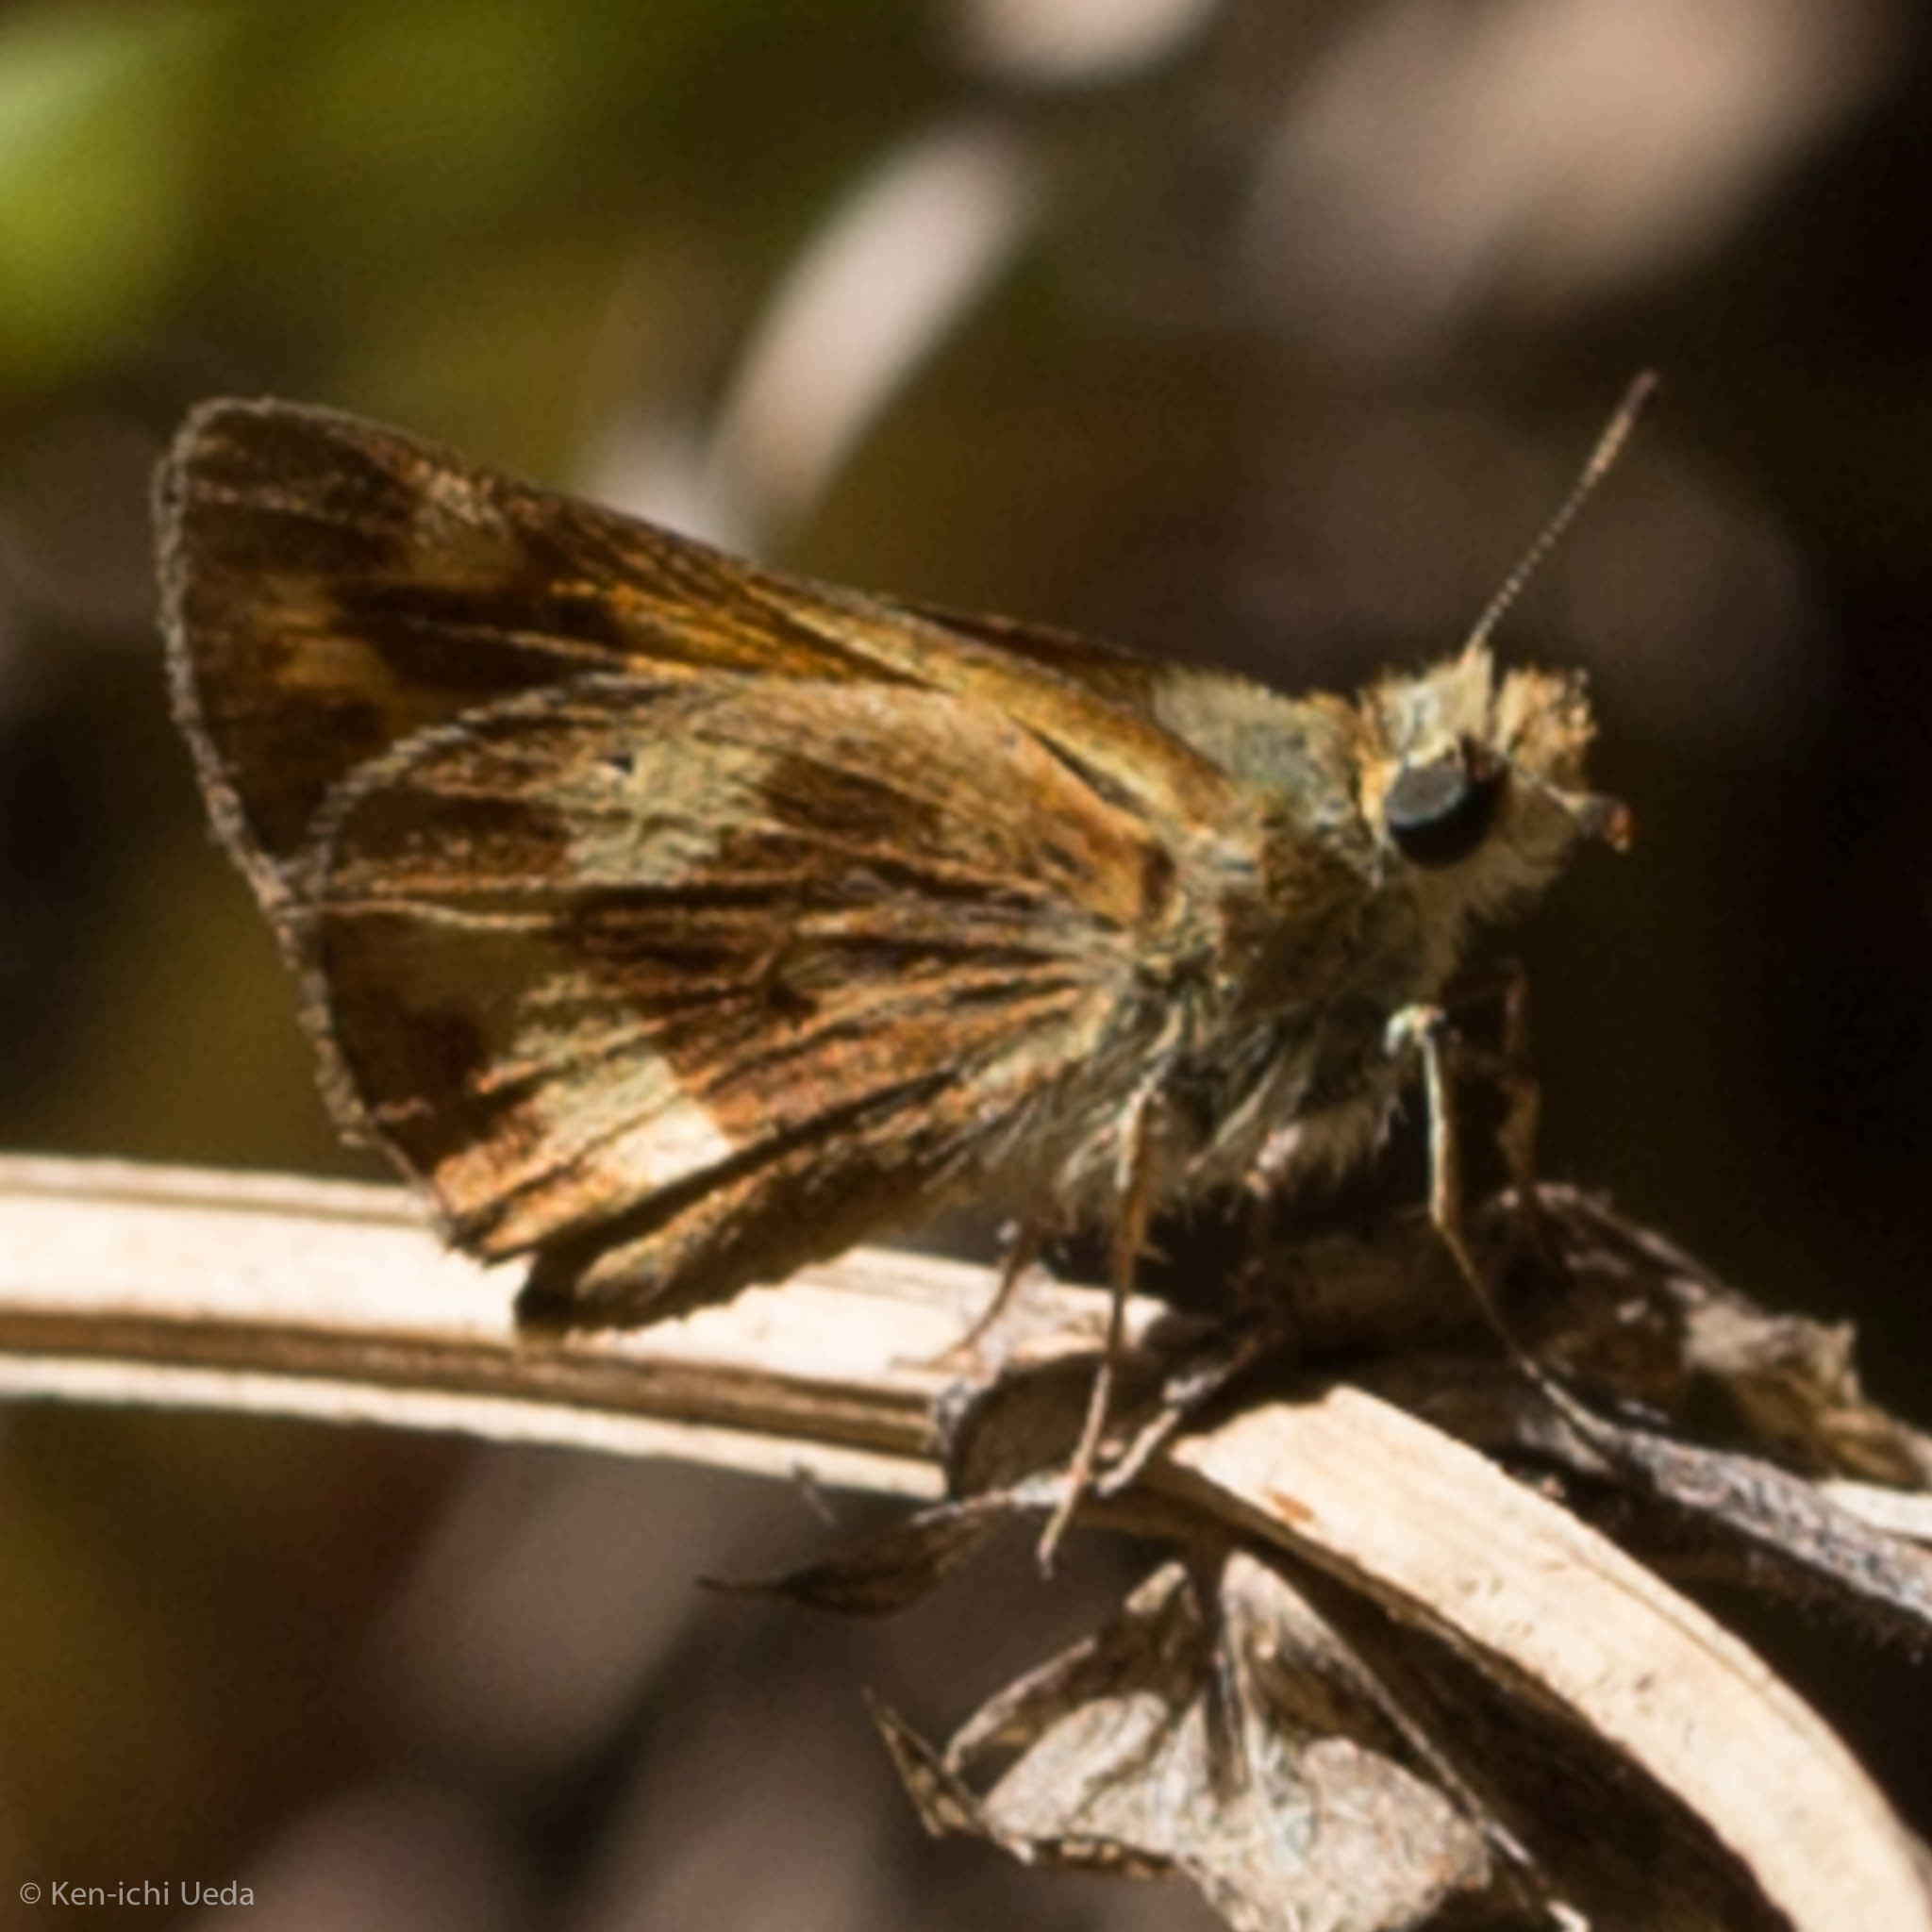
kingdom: Animalia
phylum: Arthropoda
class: Insecta
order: Lepidoptera
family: Hesperiidae
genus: Ochlodes
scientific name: Ochlodes sylvanoides
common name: Woodland skipper
